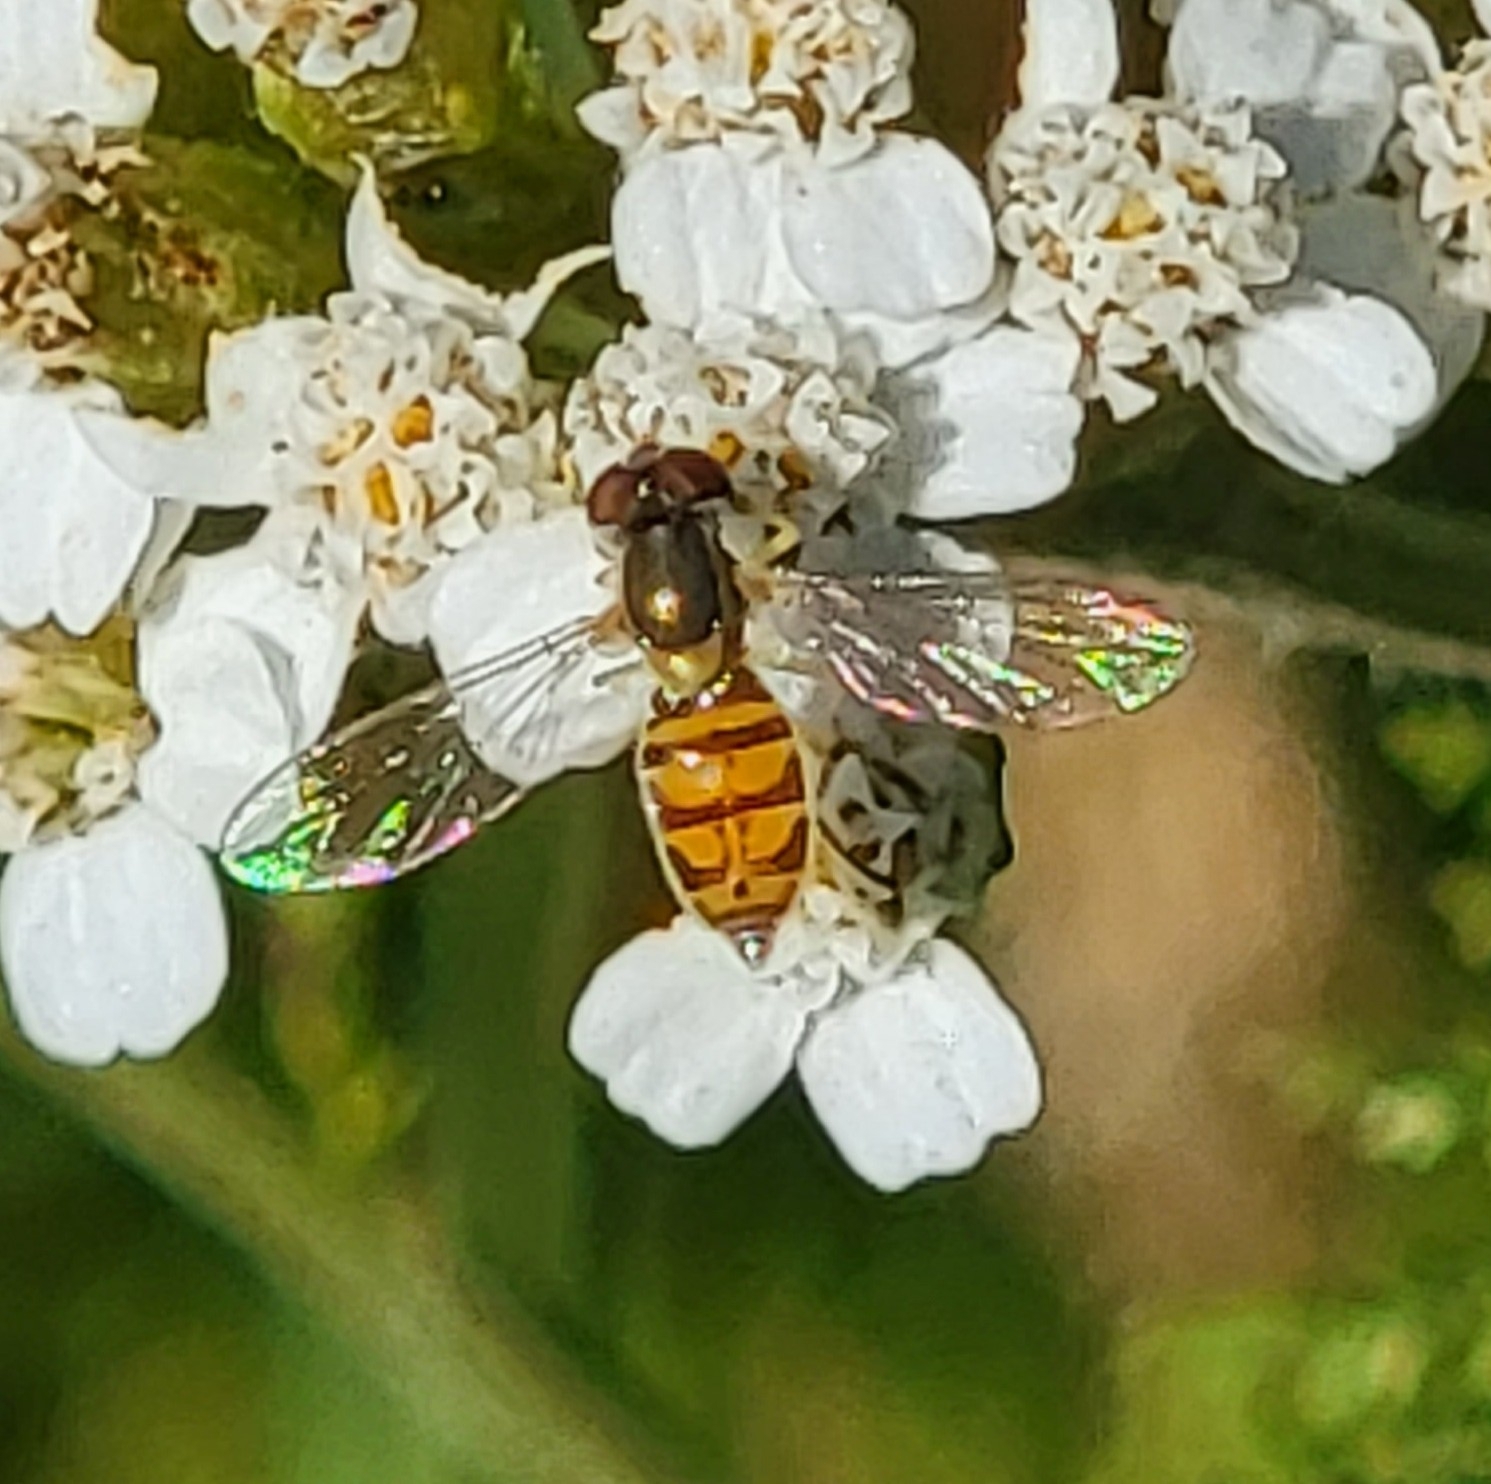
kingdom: Animalia
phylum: Arthropoda
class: Insecta
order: Diptera
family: Syrphidae
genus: Toxomerus
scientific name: Toxomerus marginatus
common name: Syrphid fly
